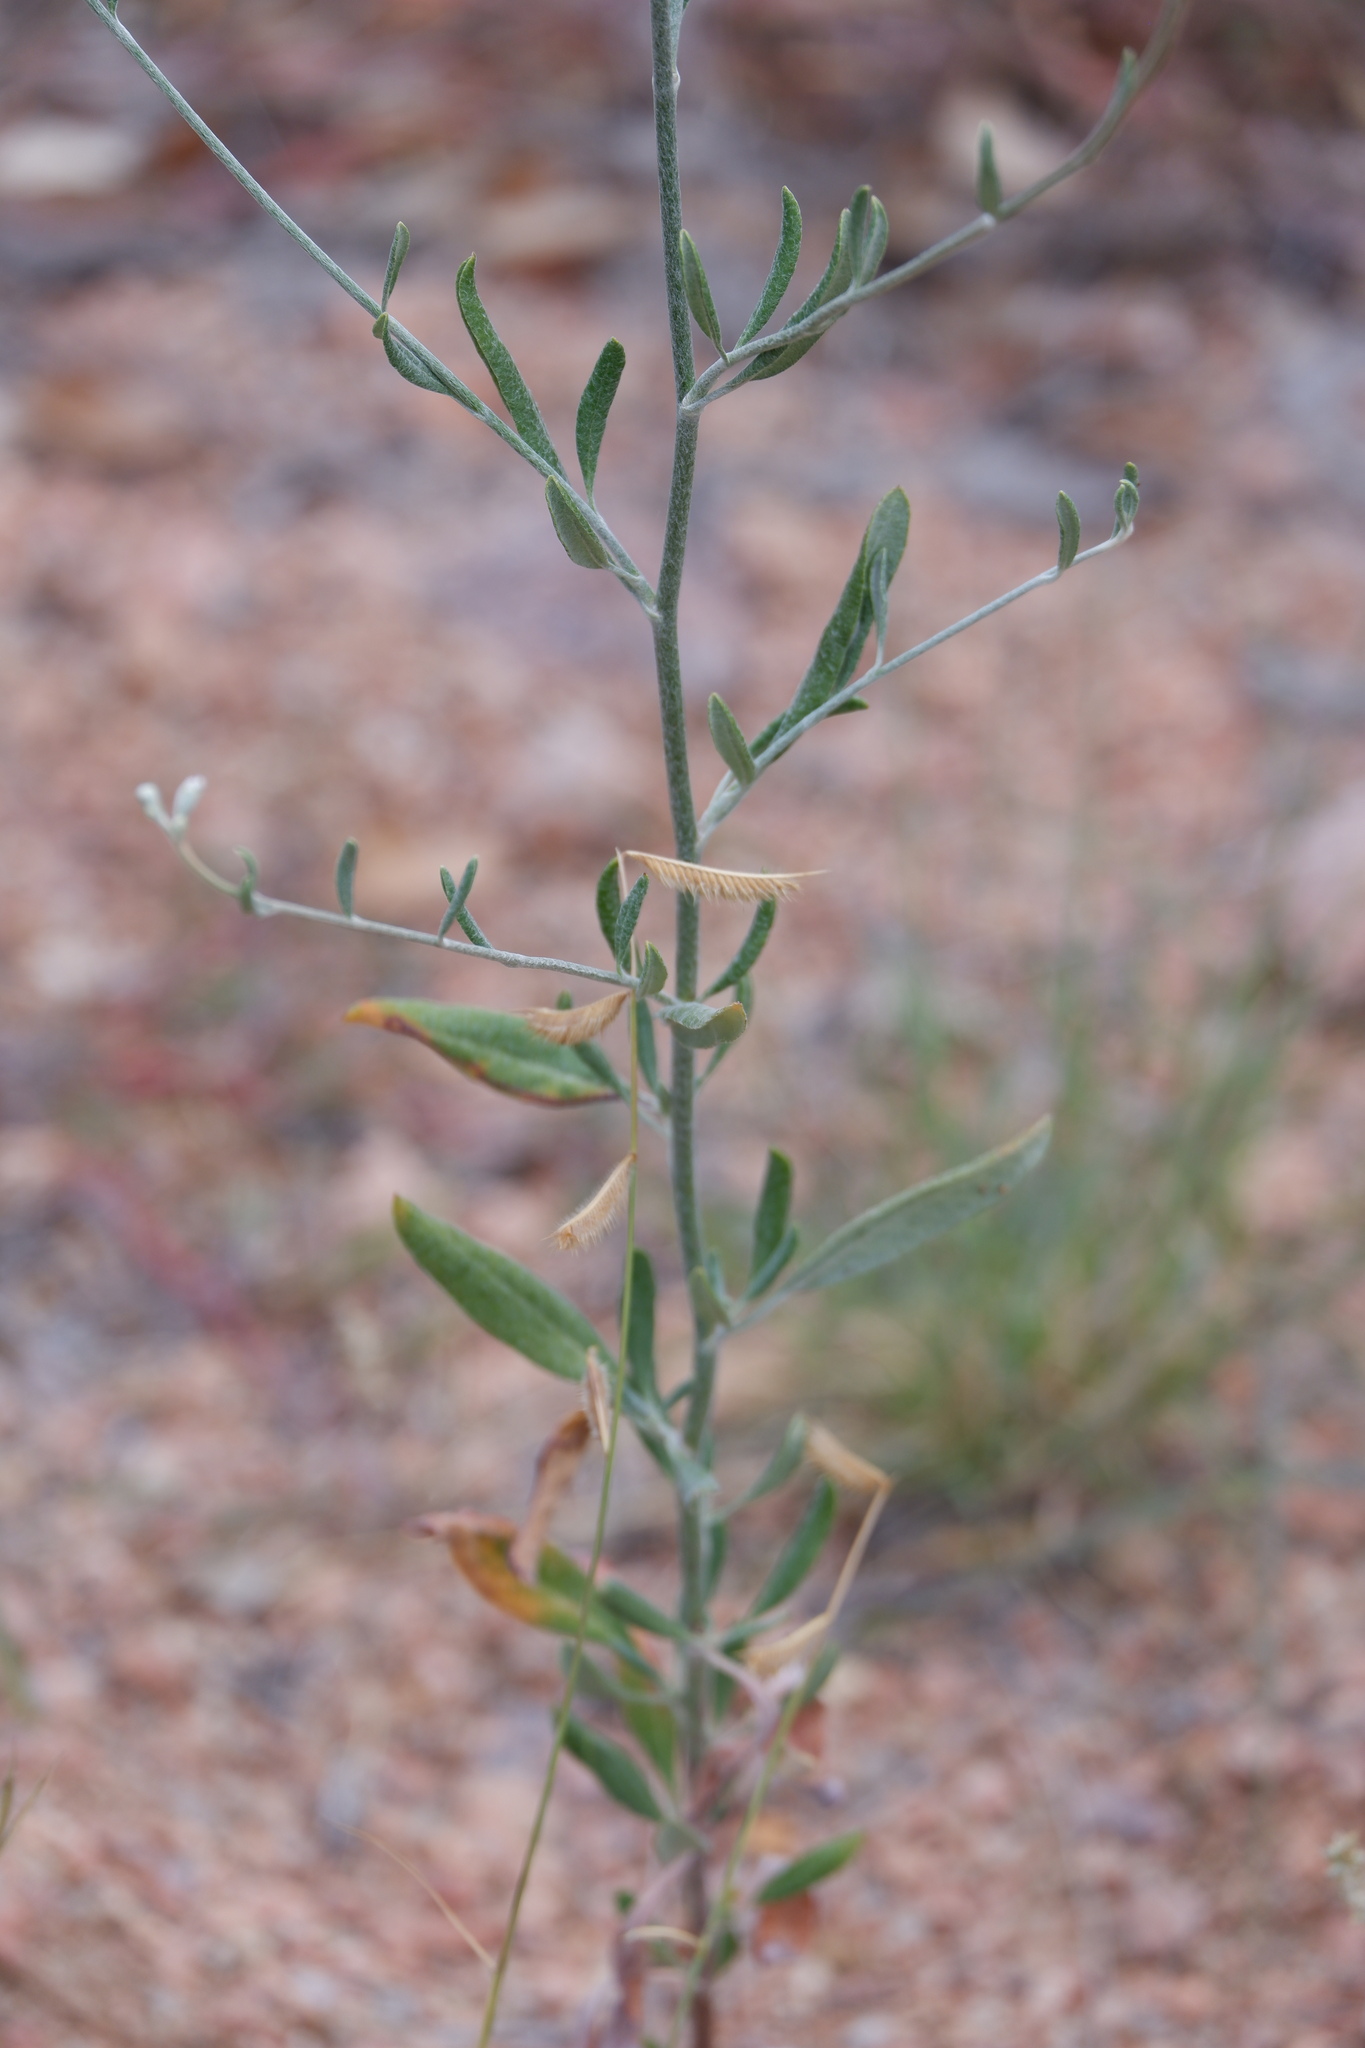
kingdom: Plantae
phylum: Tracheophyta
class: Magnoliopsida
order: Caryophyllales
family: Polygonaceae
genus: Eriogonum
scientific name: Eriogonum annuum
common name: Annual wild buckwheat
